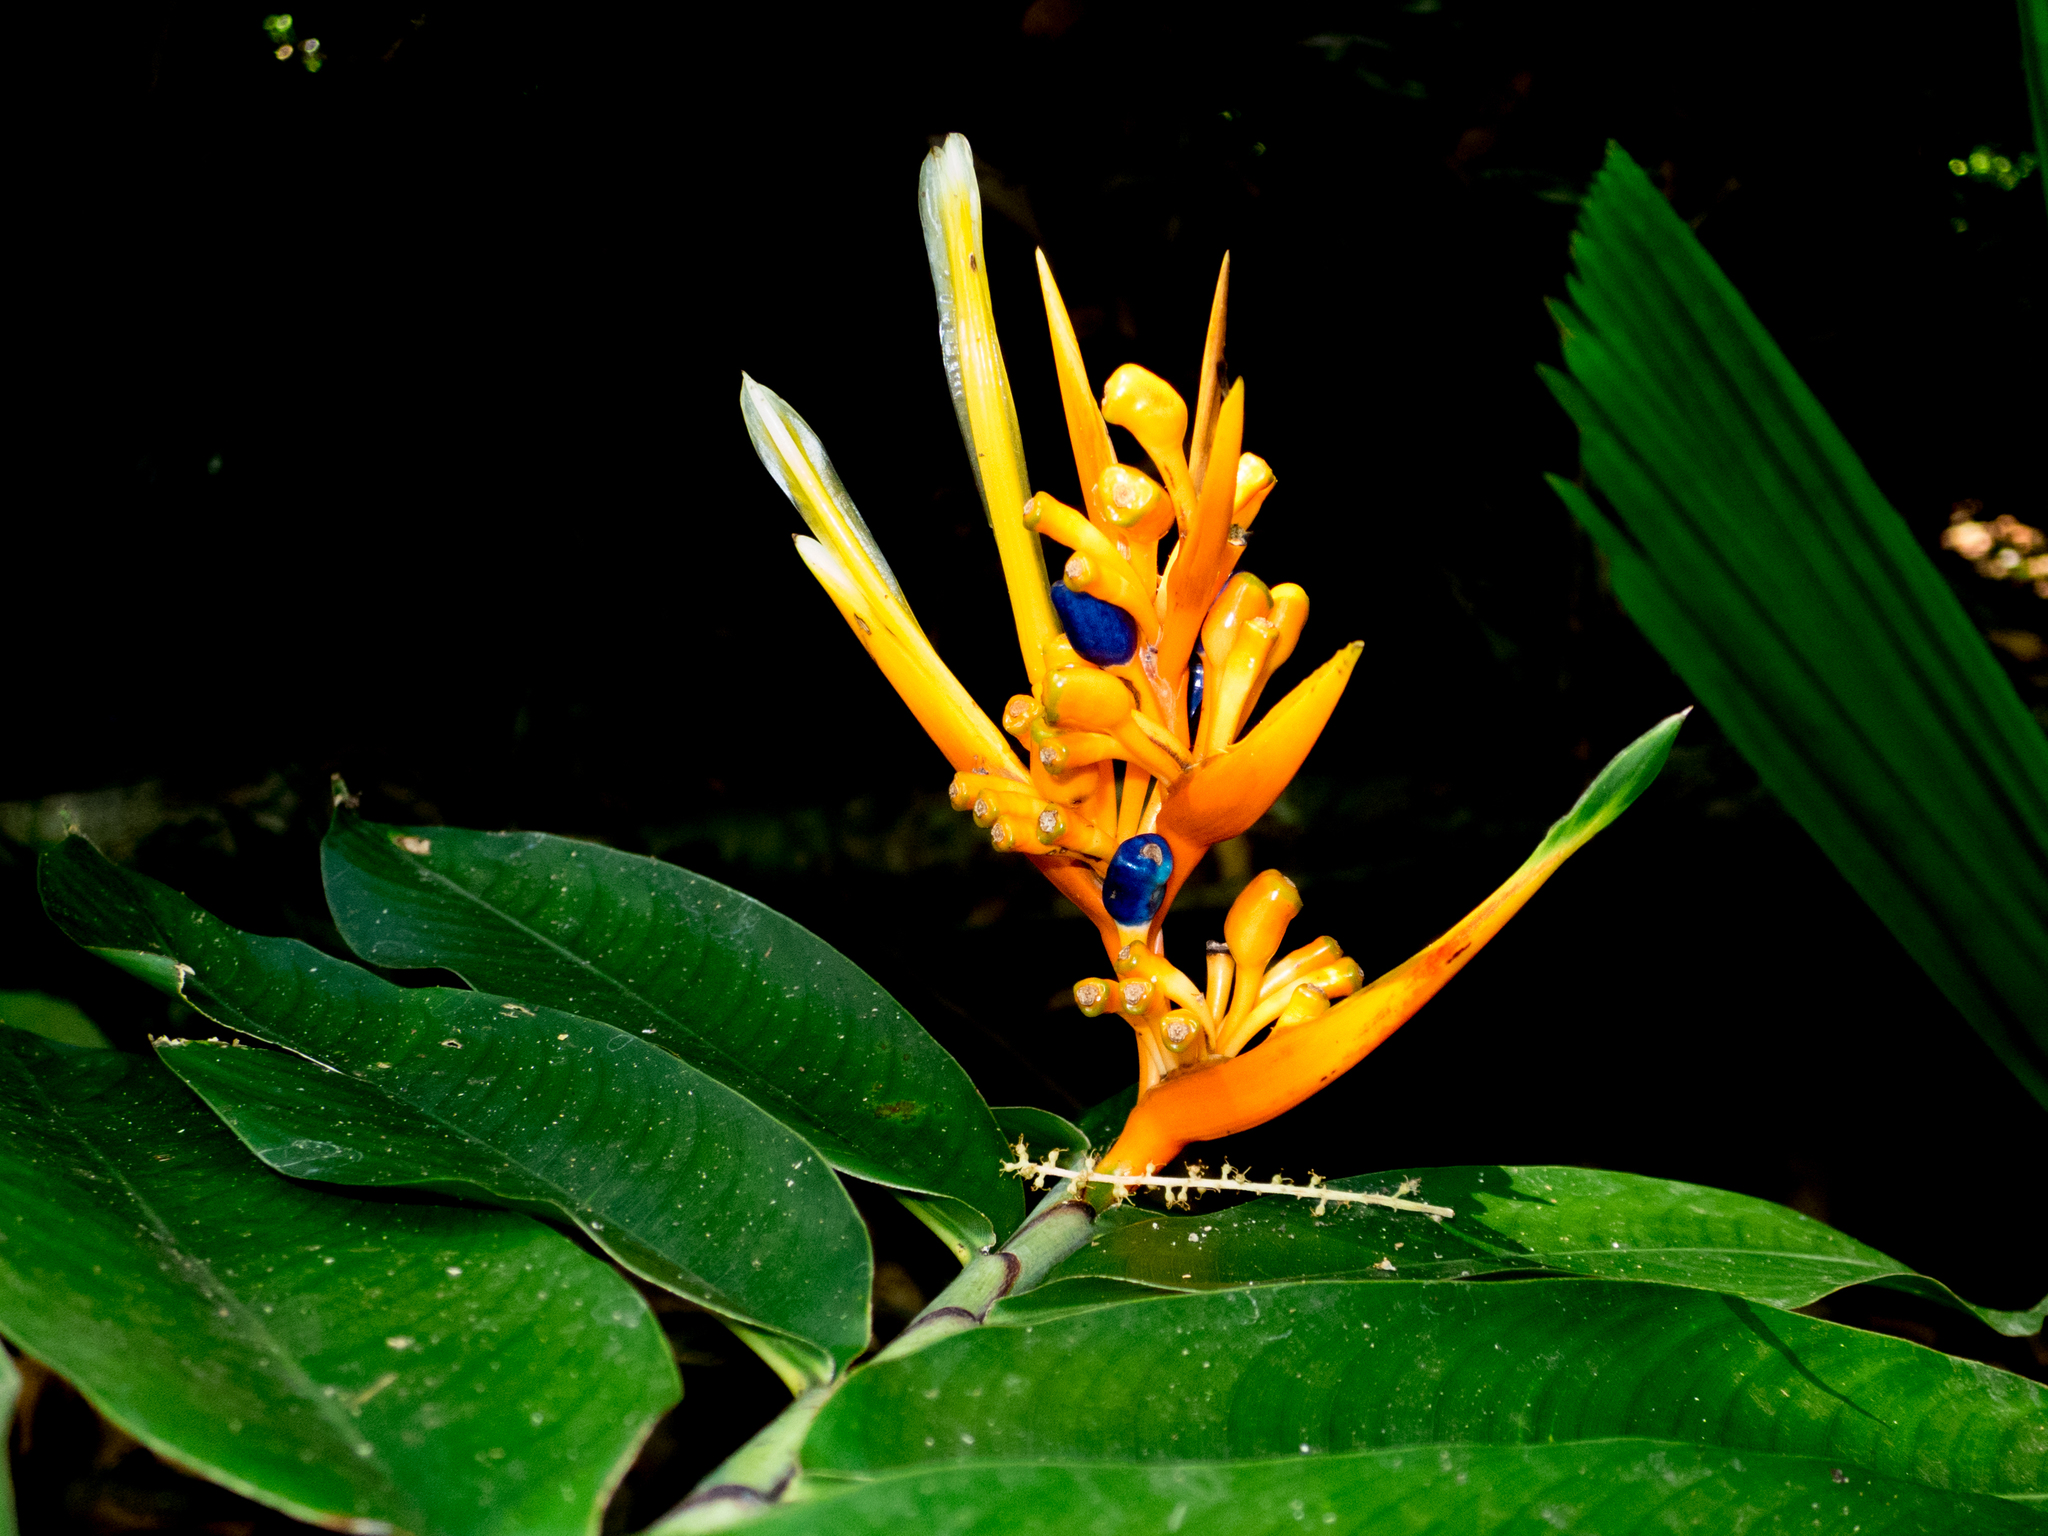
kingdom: Plantae
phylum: Tracheophyta
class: Liliopsida
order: Zingiberales
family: Heliconiaceae
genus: Heliconia
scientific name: Heliconia longiflora
